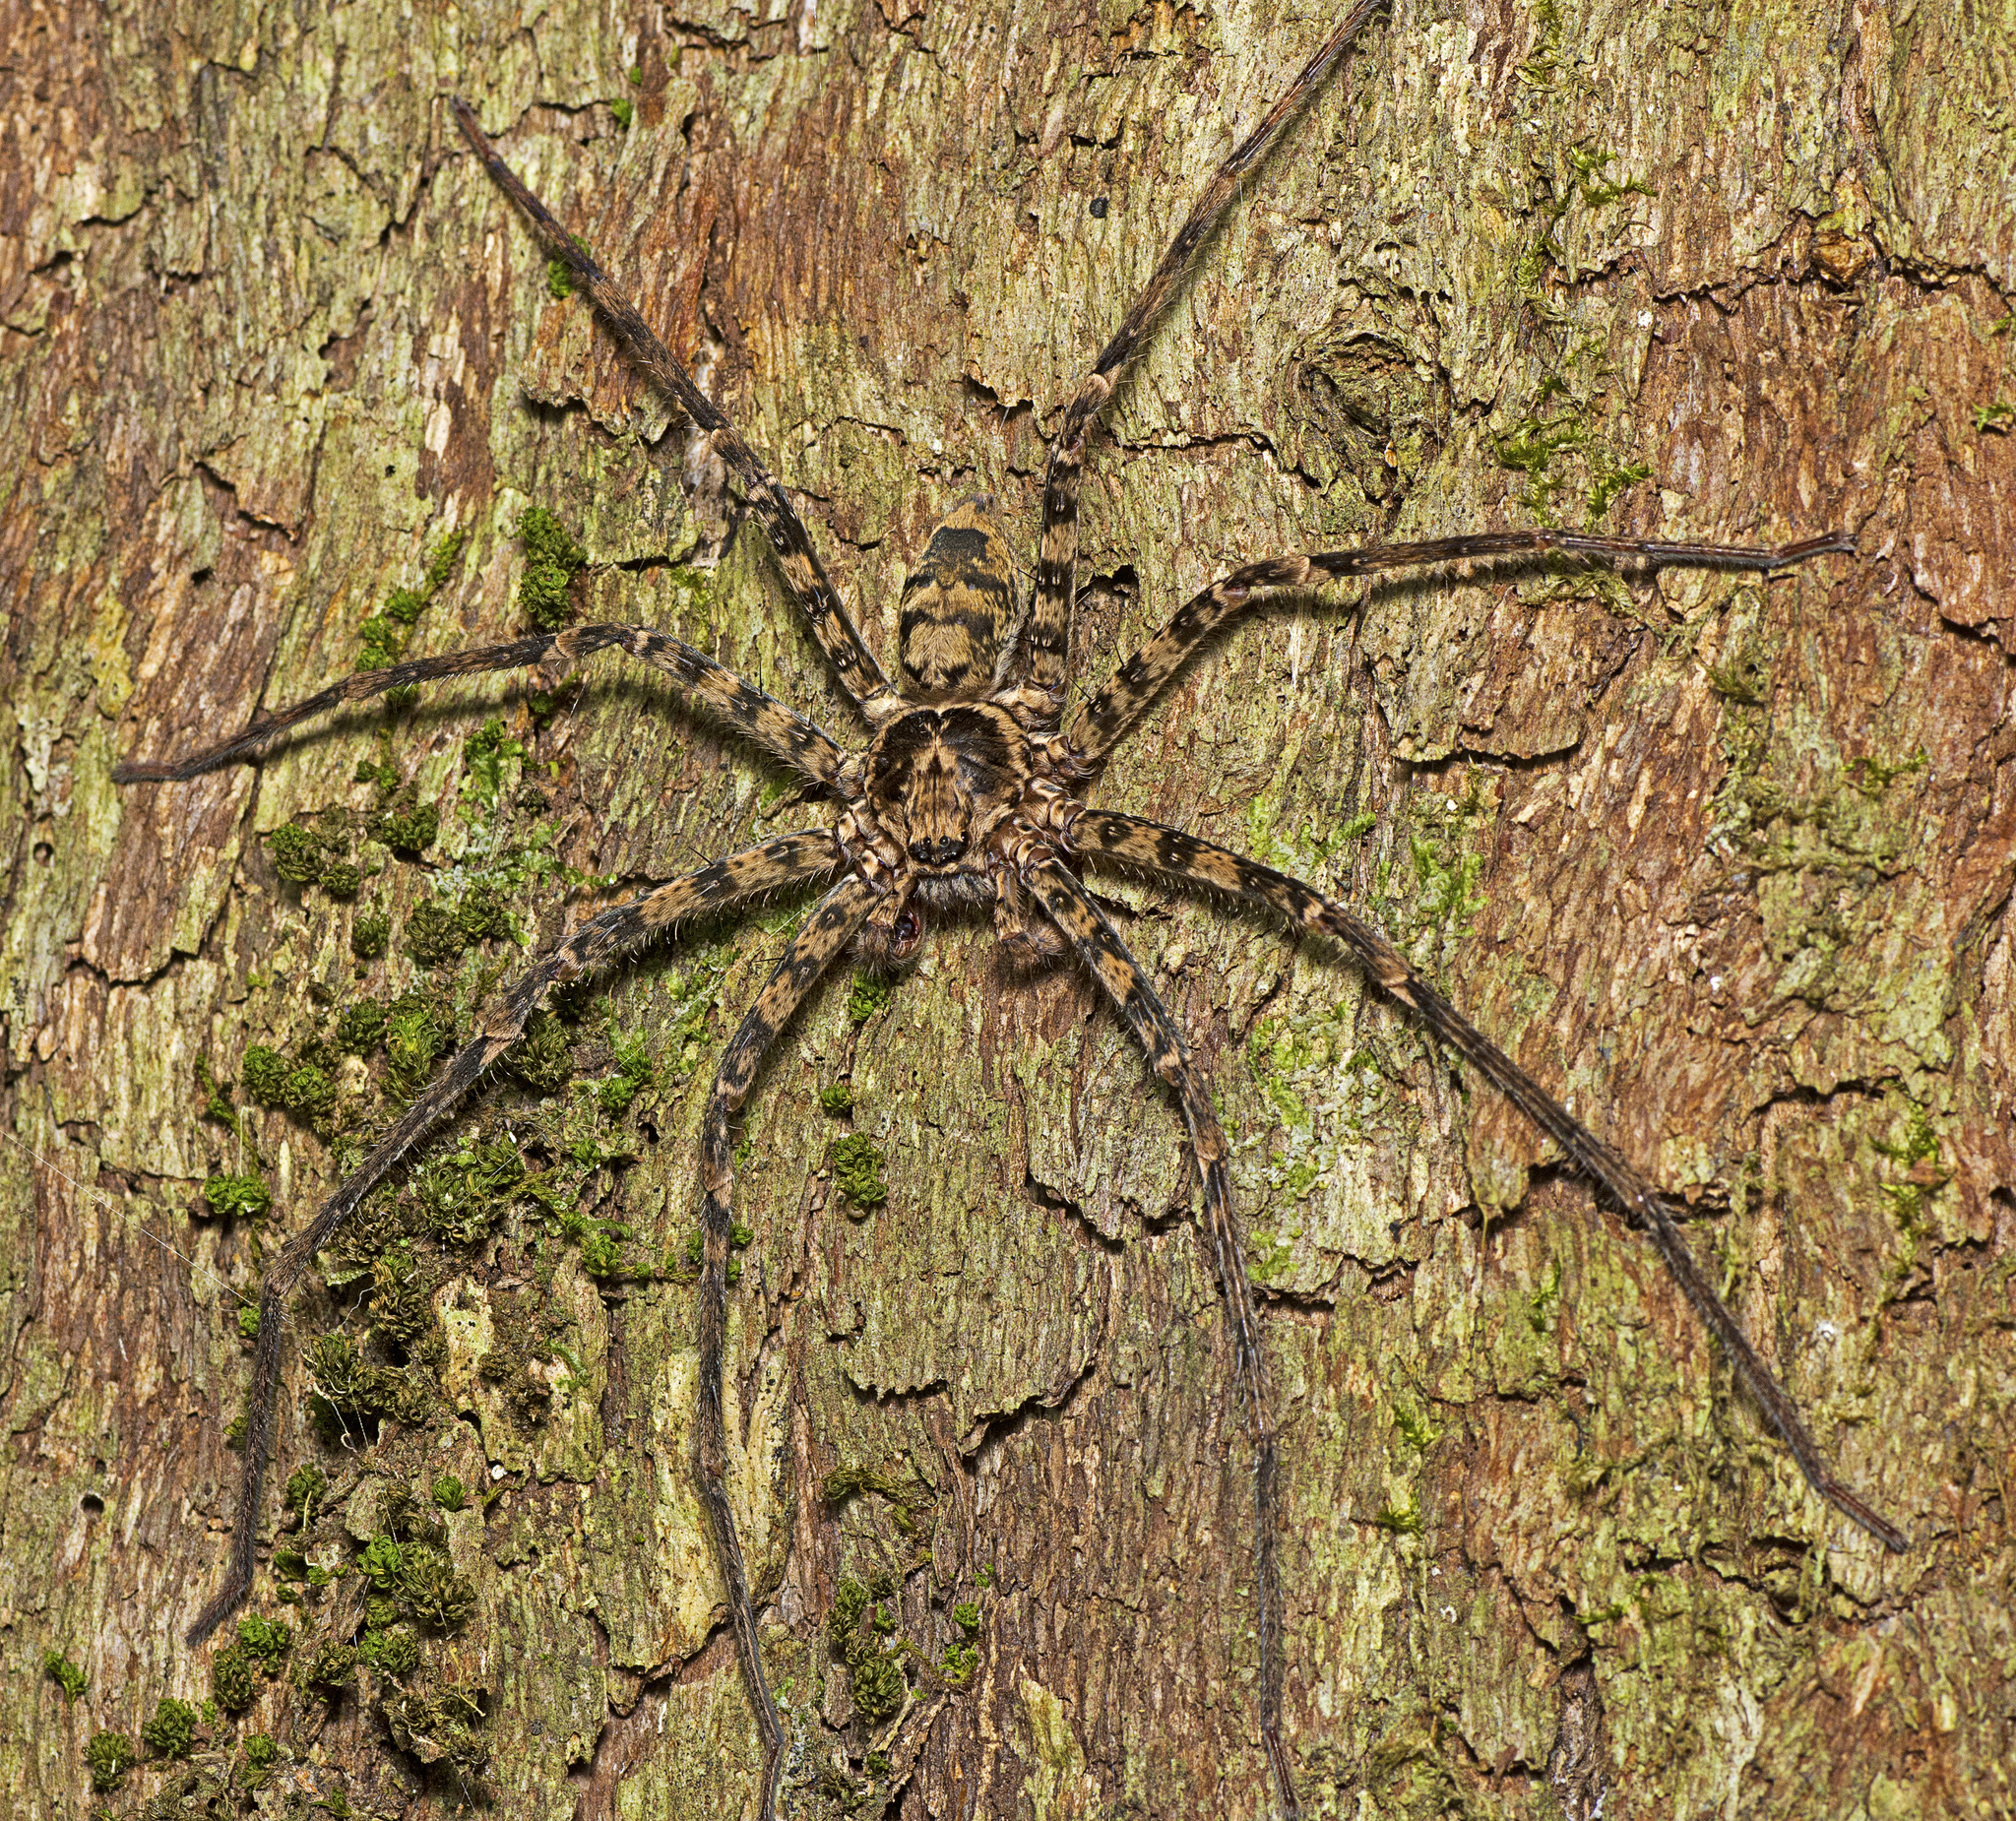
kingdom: Animalia
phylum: Arthropoda
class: Arachnida
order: Araneae
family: Sparassidae
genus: Heteropoda
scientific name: Heteropoda procera
